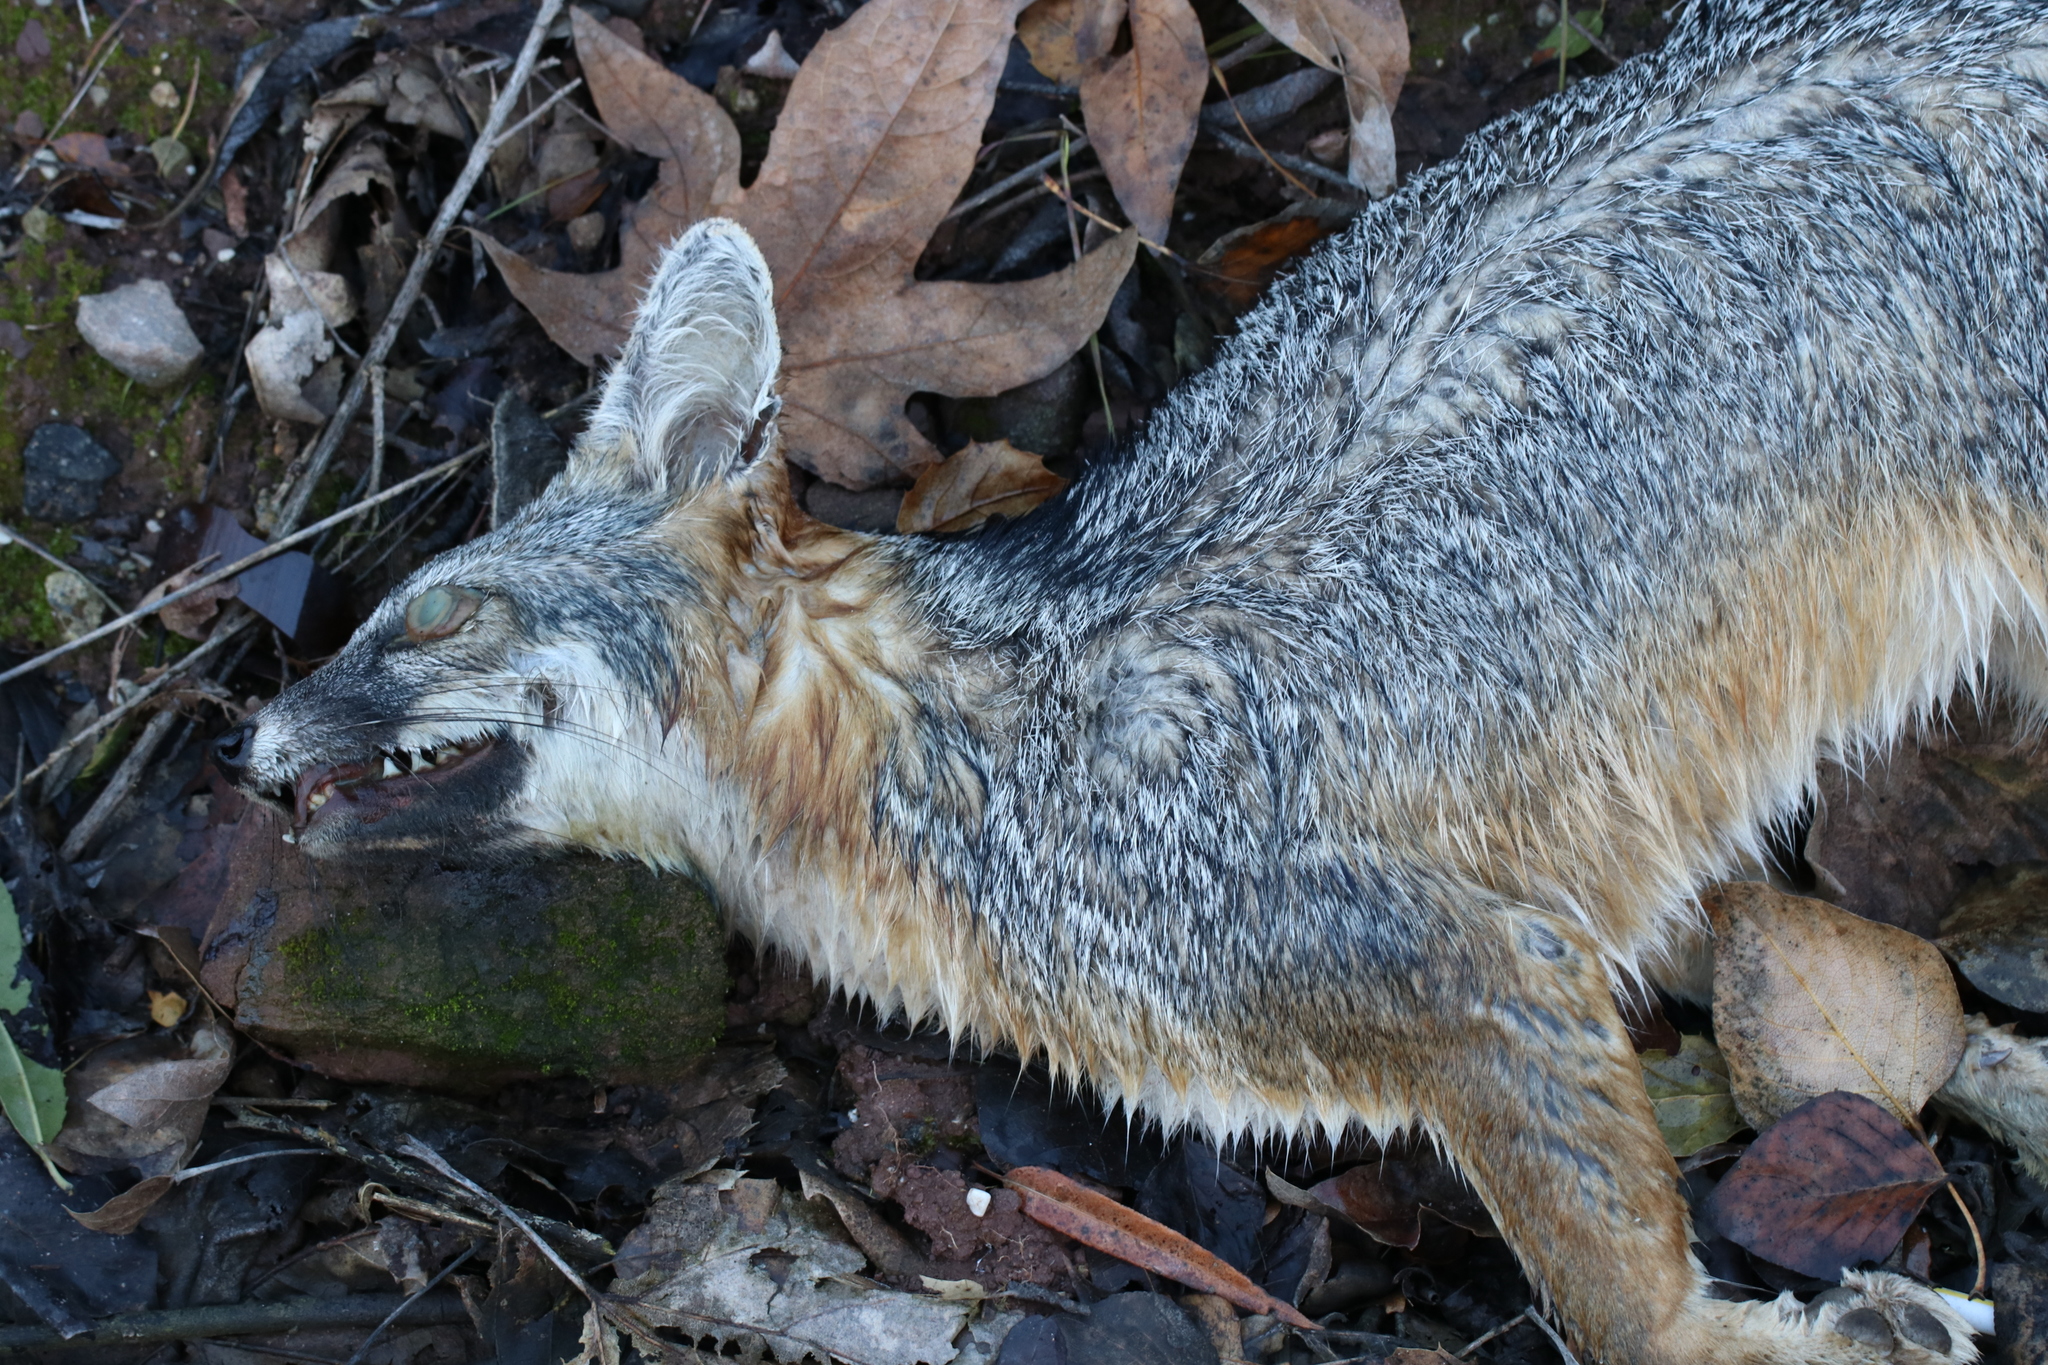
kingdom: Animalia
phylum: Chordata
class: Mammalia
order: Carnivora
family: Canidae
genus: Urocyon
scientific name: Urocyon cinereoargenteus
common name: Gray fox
